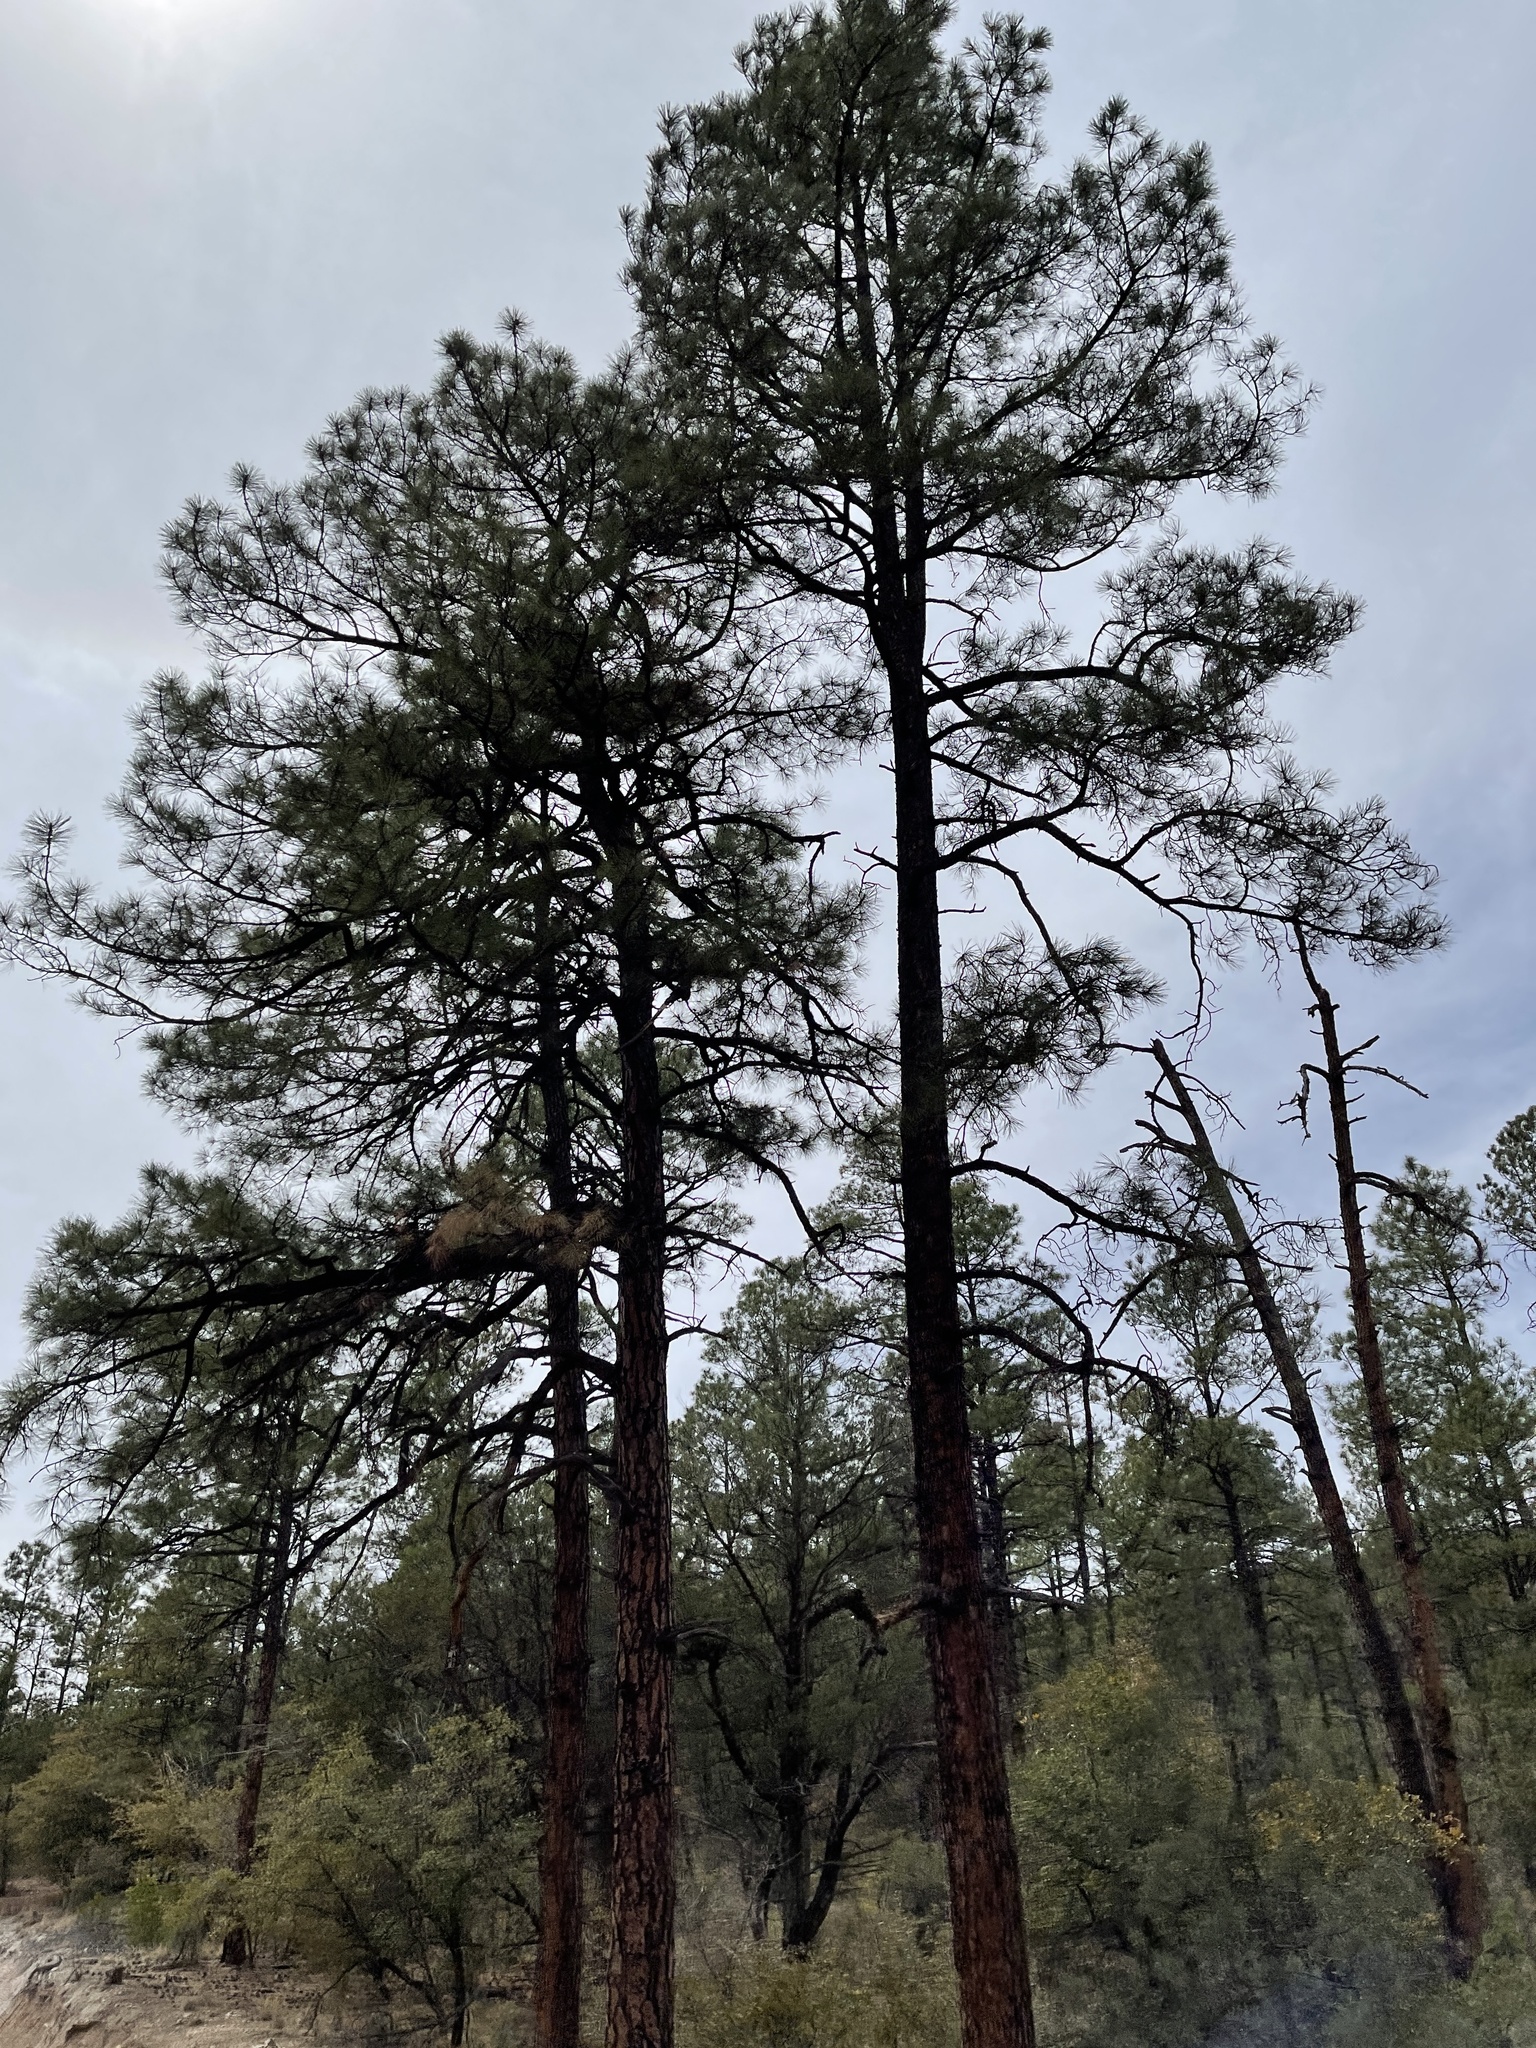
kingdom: Plantae
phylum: Tracheophyta
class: Pinopsida
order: Pinales
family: Pinaceae
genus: Pinus
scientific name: Pinus ponderosa
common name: Western yellow-pine
